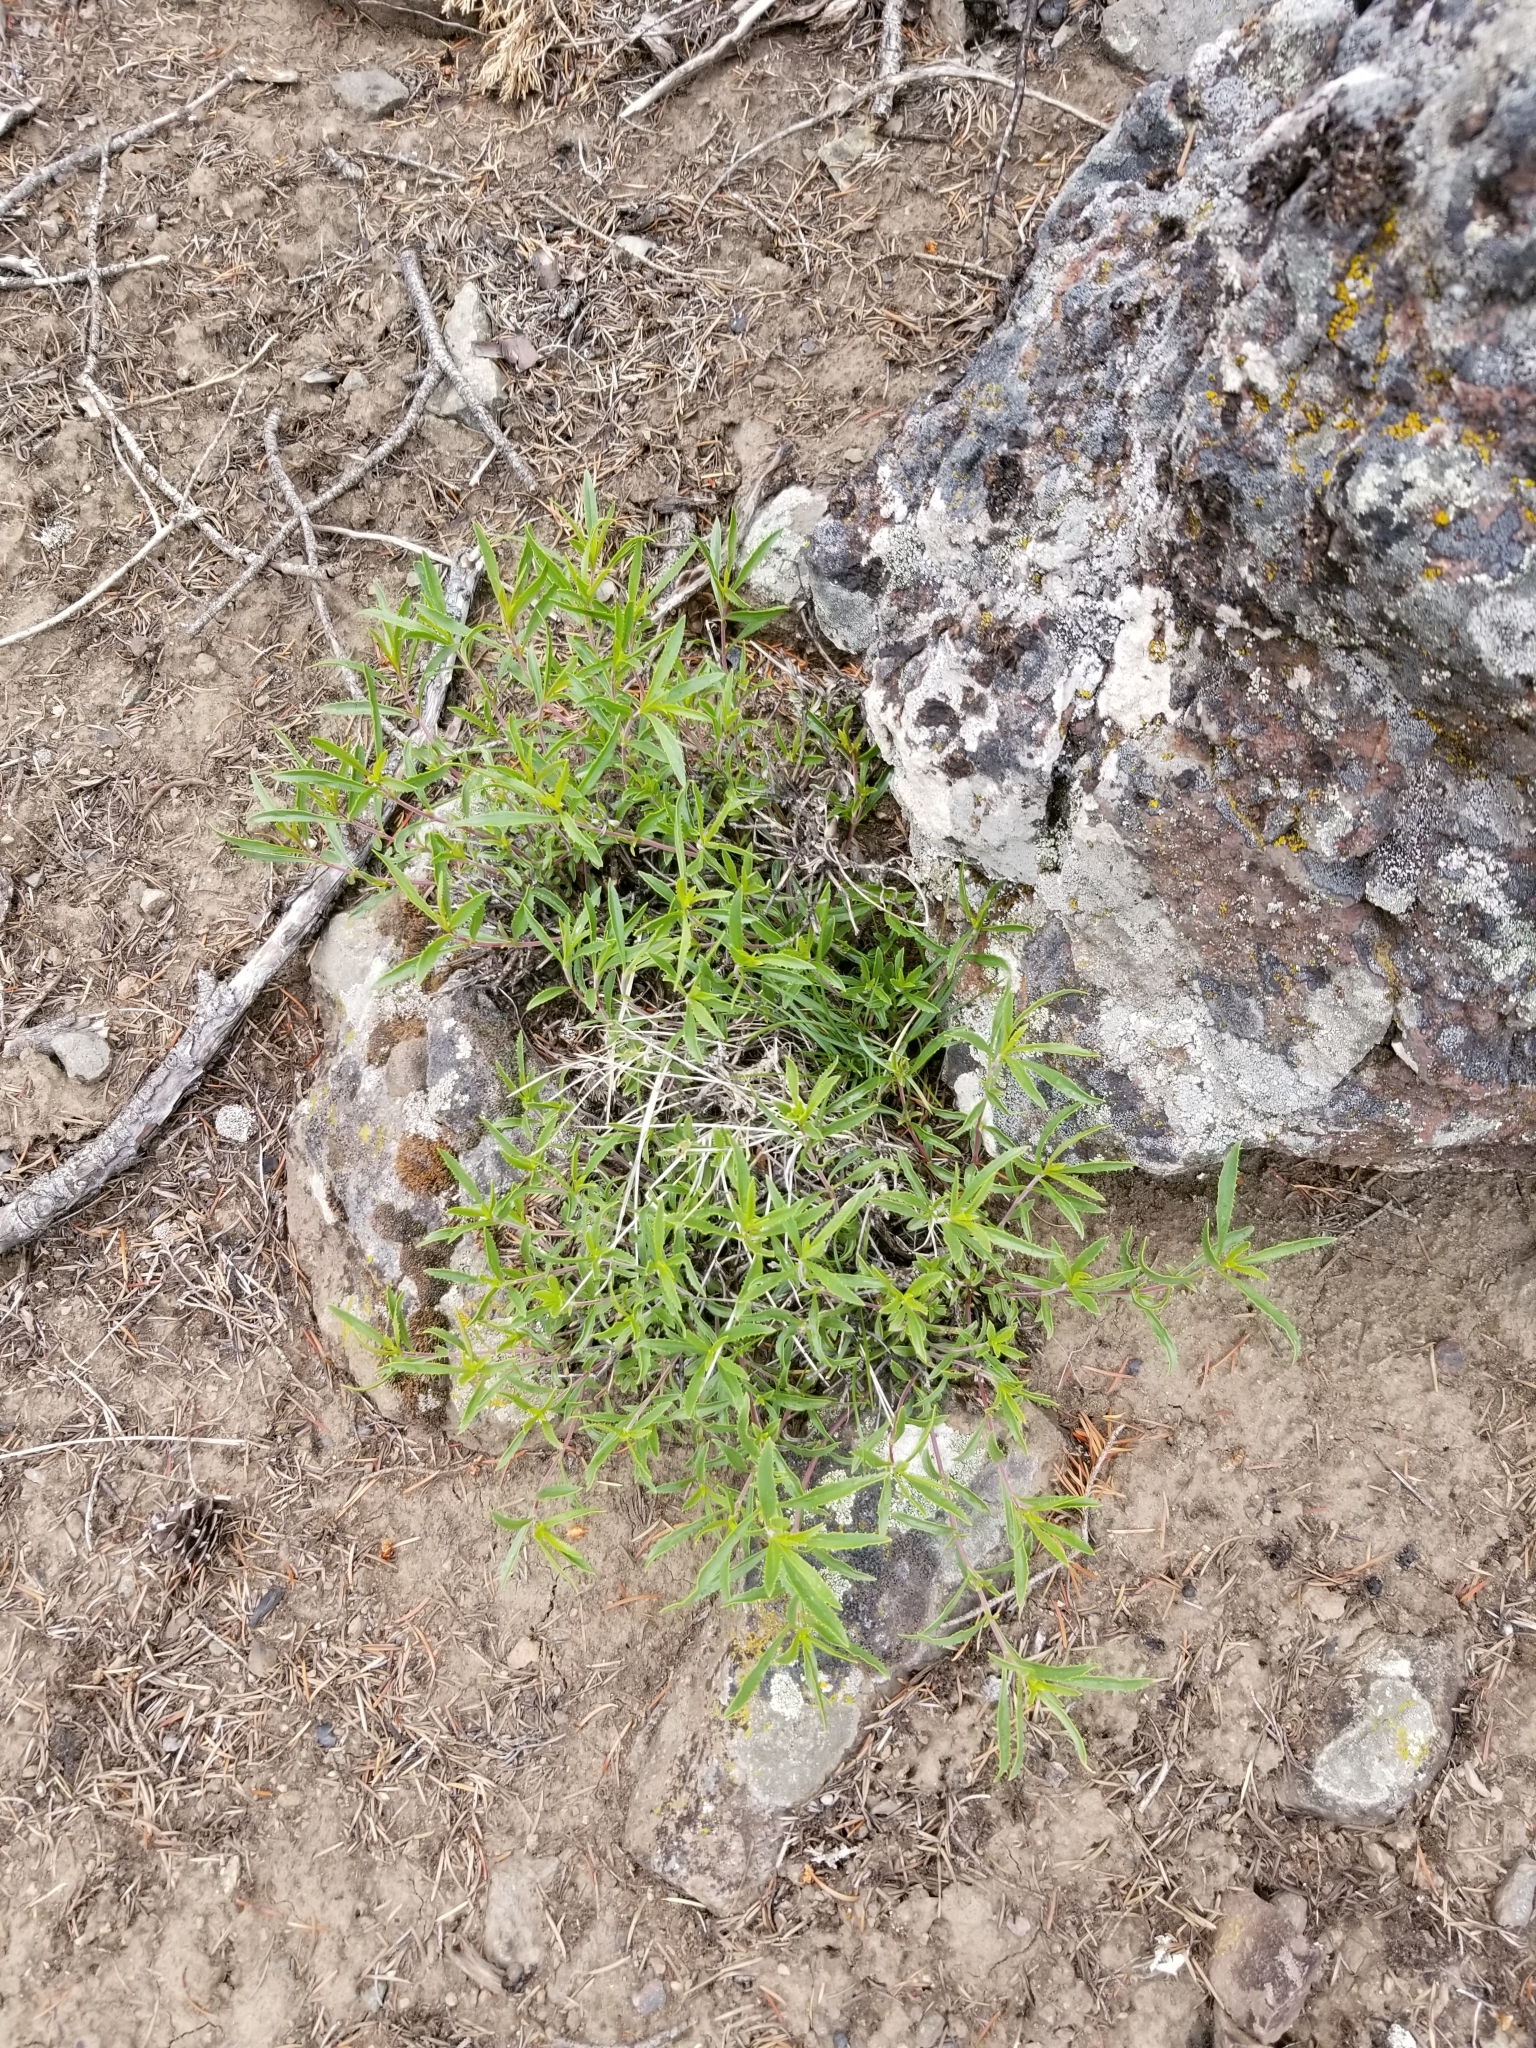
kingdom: Plantae
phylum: Tracheophyta
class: Magnoliopsida
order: Lamiales
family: Plantaginaceae
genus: Penstemon
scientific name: Penstemon fruticosus
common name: Bush penstemon
